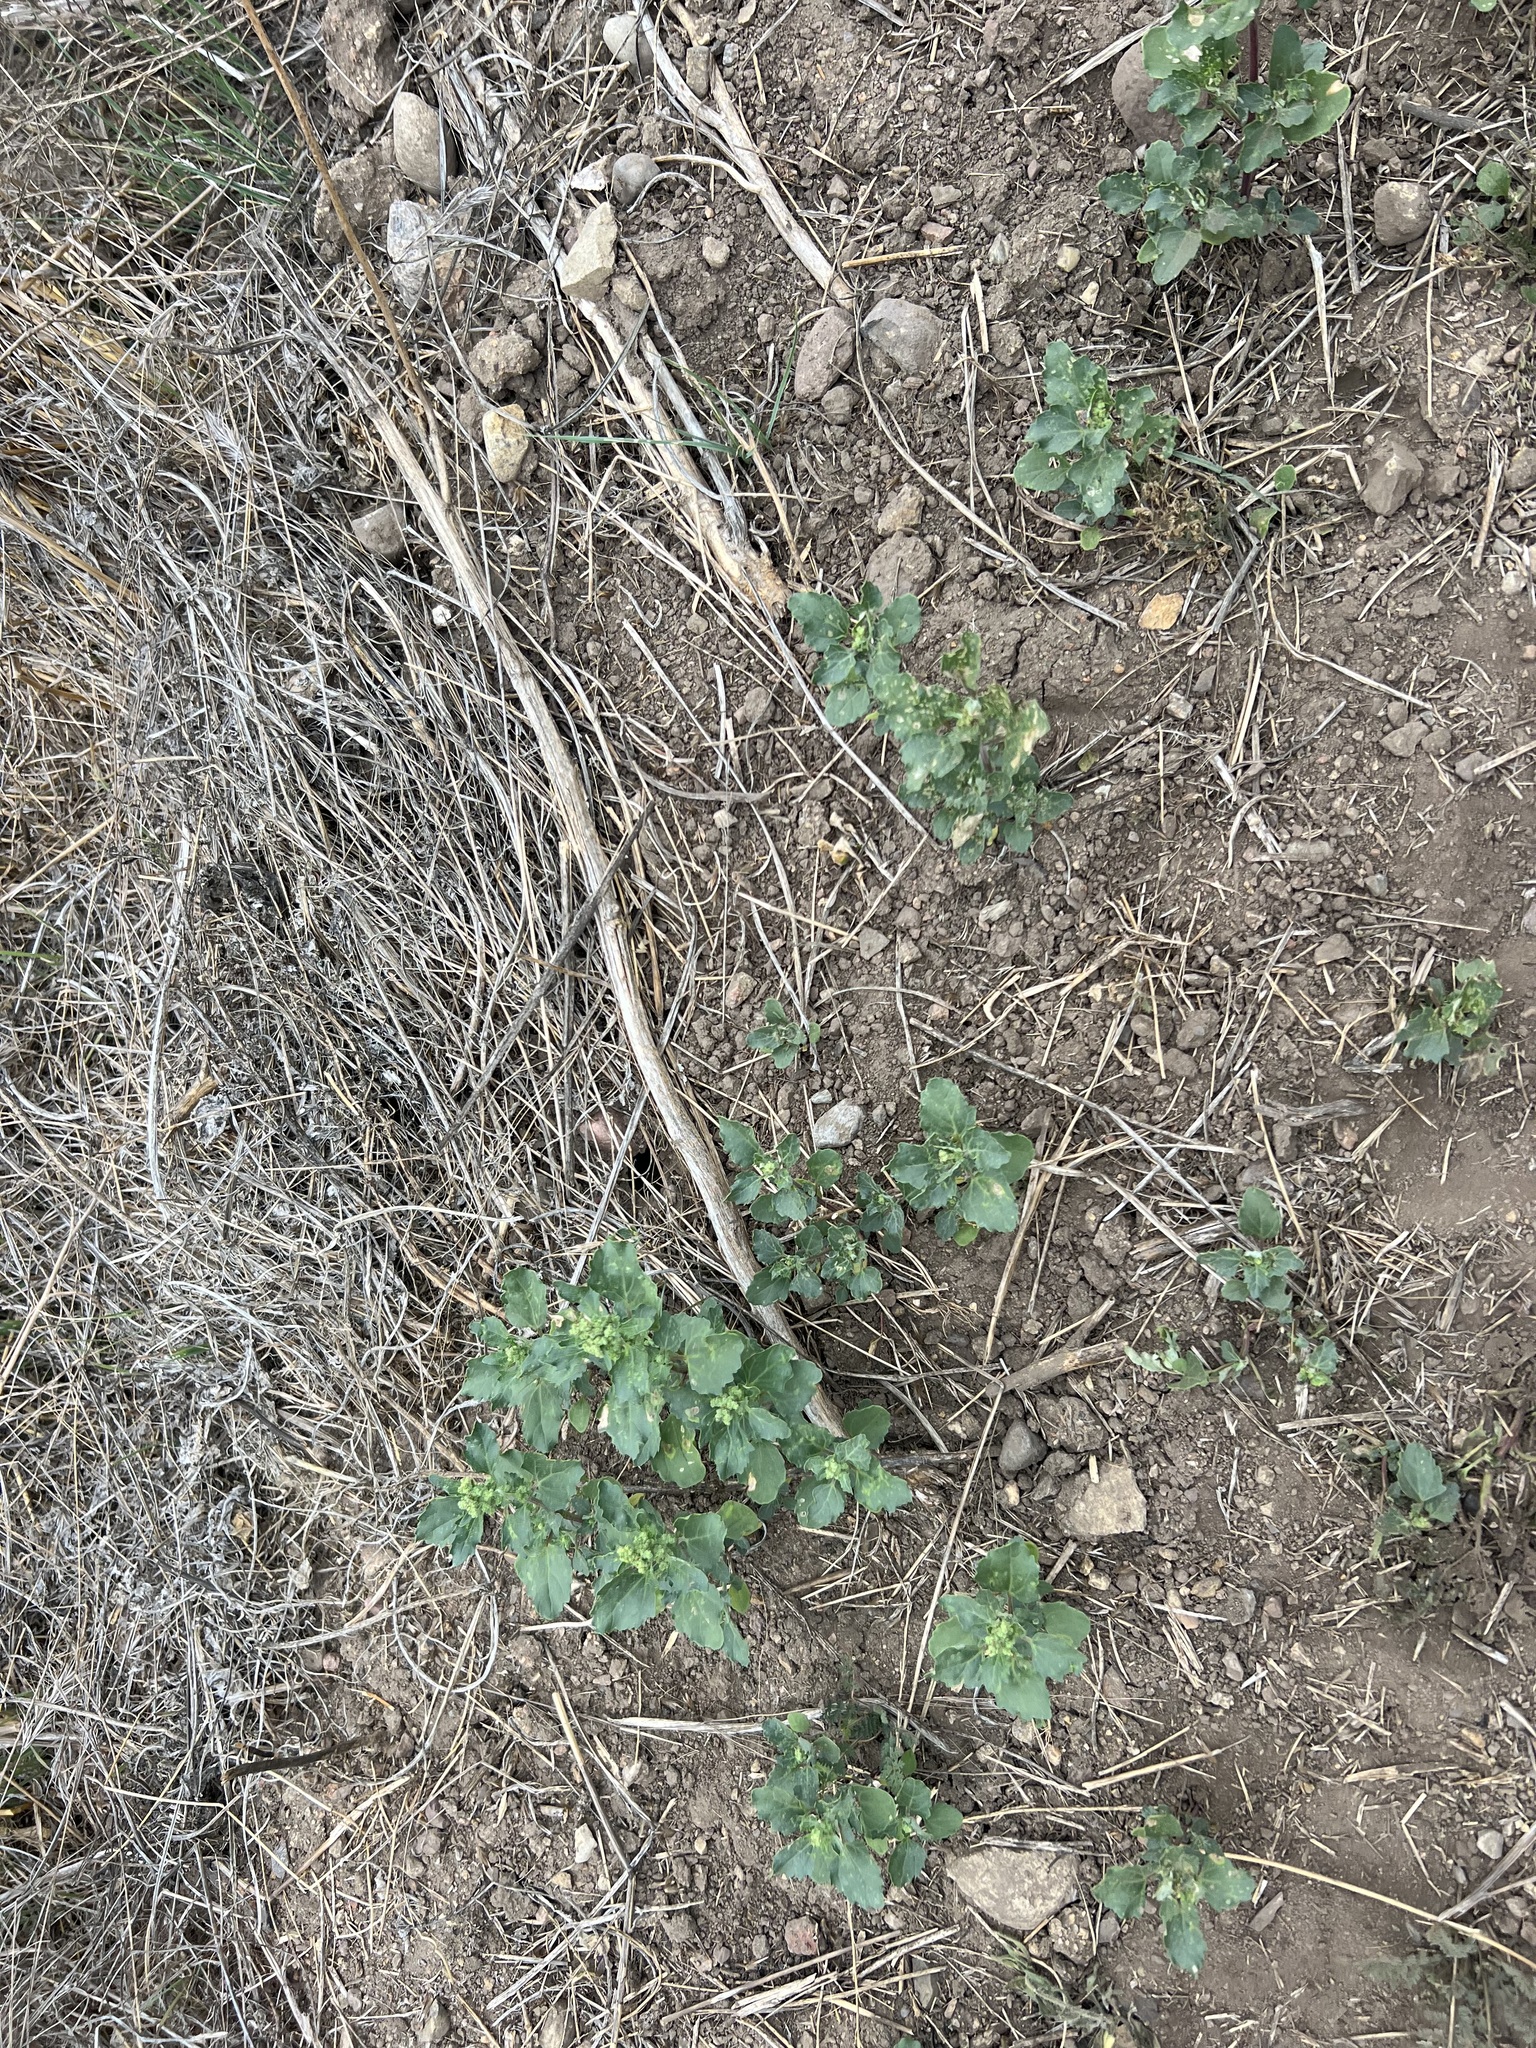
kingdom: Plantae
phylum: Tracheophyta
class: Magnoliopsida
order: Caryophyllales
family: Amaranthaceae
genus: Chenopodiastrum
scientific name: Chenopodiastrum murale
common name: Sowbane
